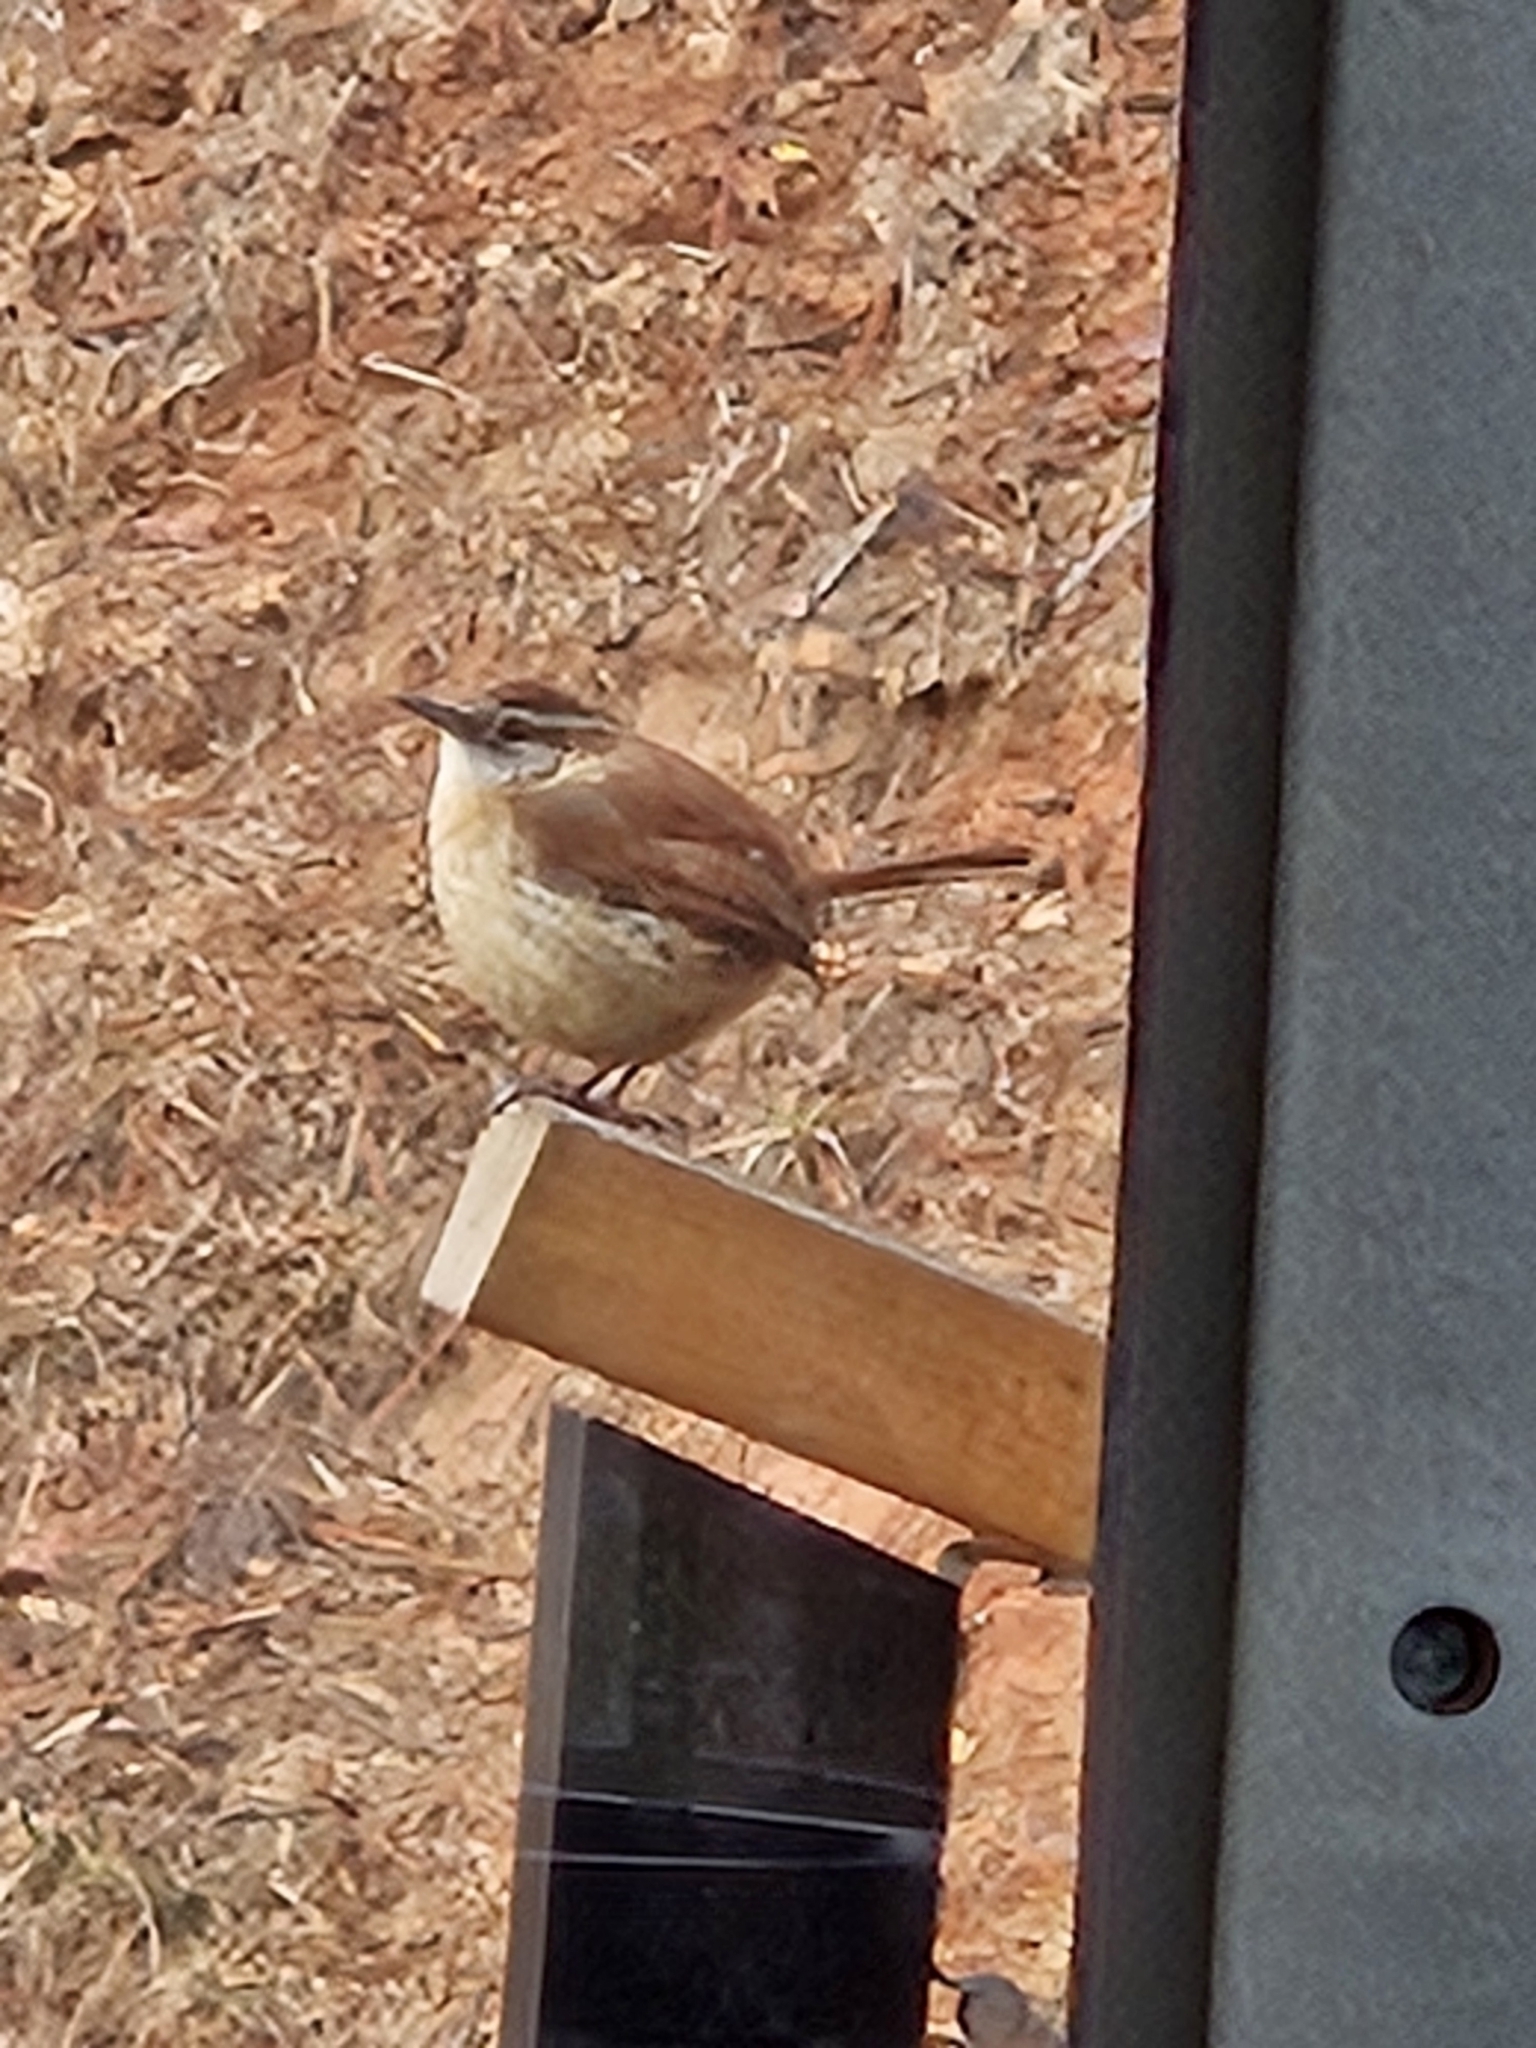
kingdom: Animalia
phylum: Chordata
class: Aves
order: Passeriformes
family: Troglodytidae
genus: Thryothorus
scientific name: Thryothorus ludovicianus
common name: Carolina wren
